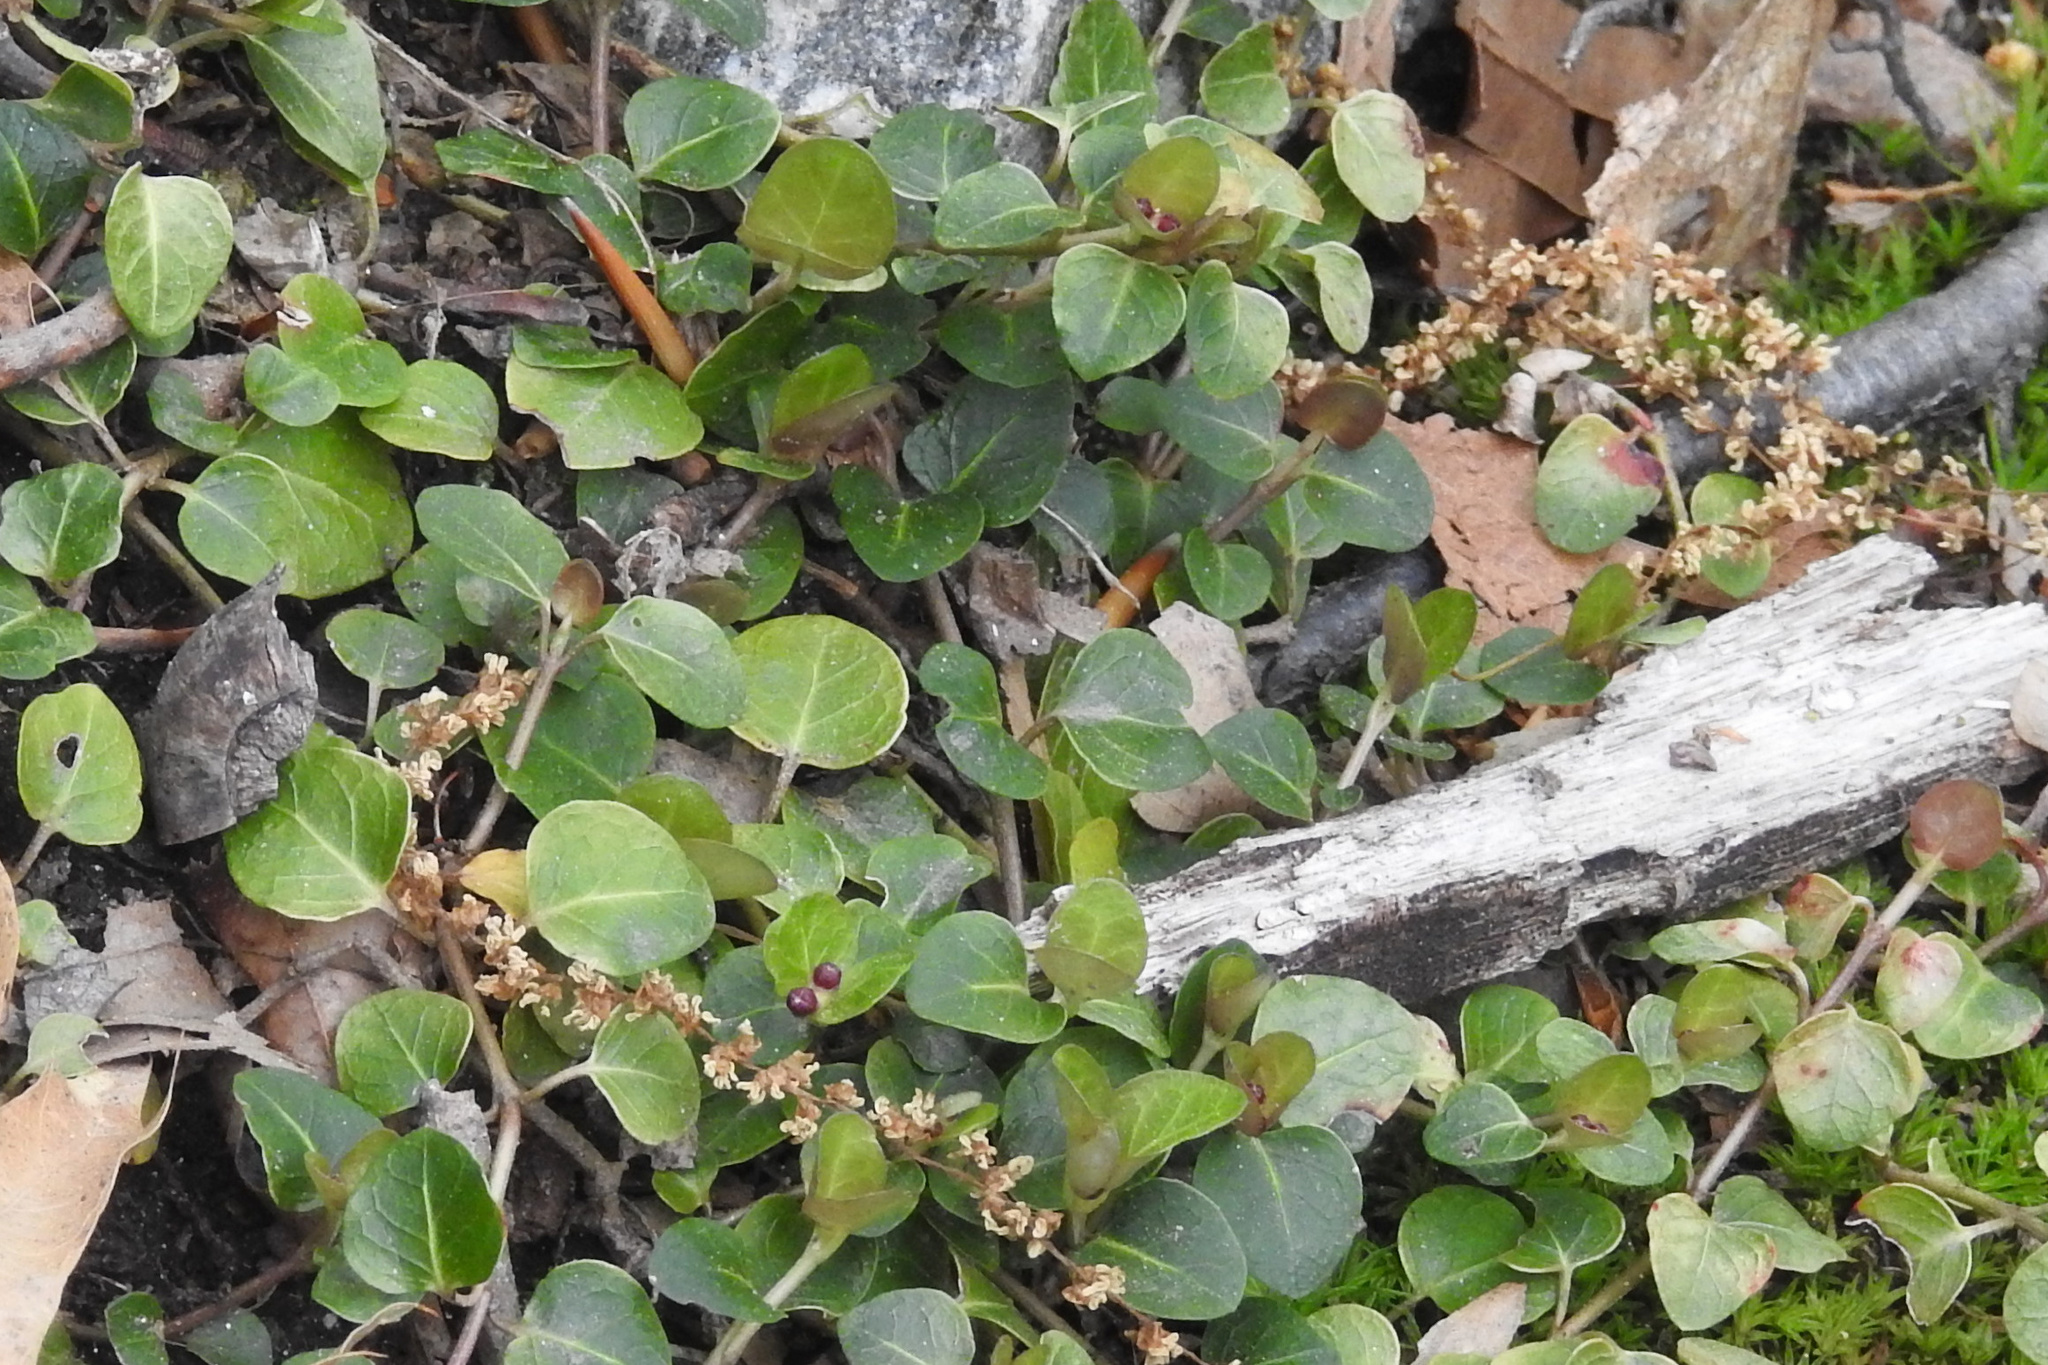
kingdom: Plantae
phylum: Tracheophyta
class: Magnoliopsida
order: Gentianales
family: Rubiaceae
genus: Mitchella
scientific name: Mitchella repens
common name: Partridge-berry
